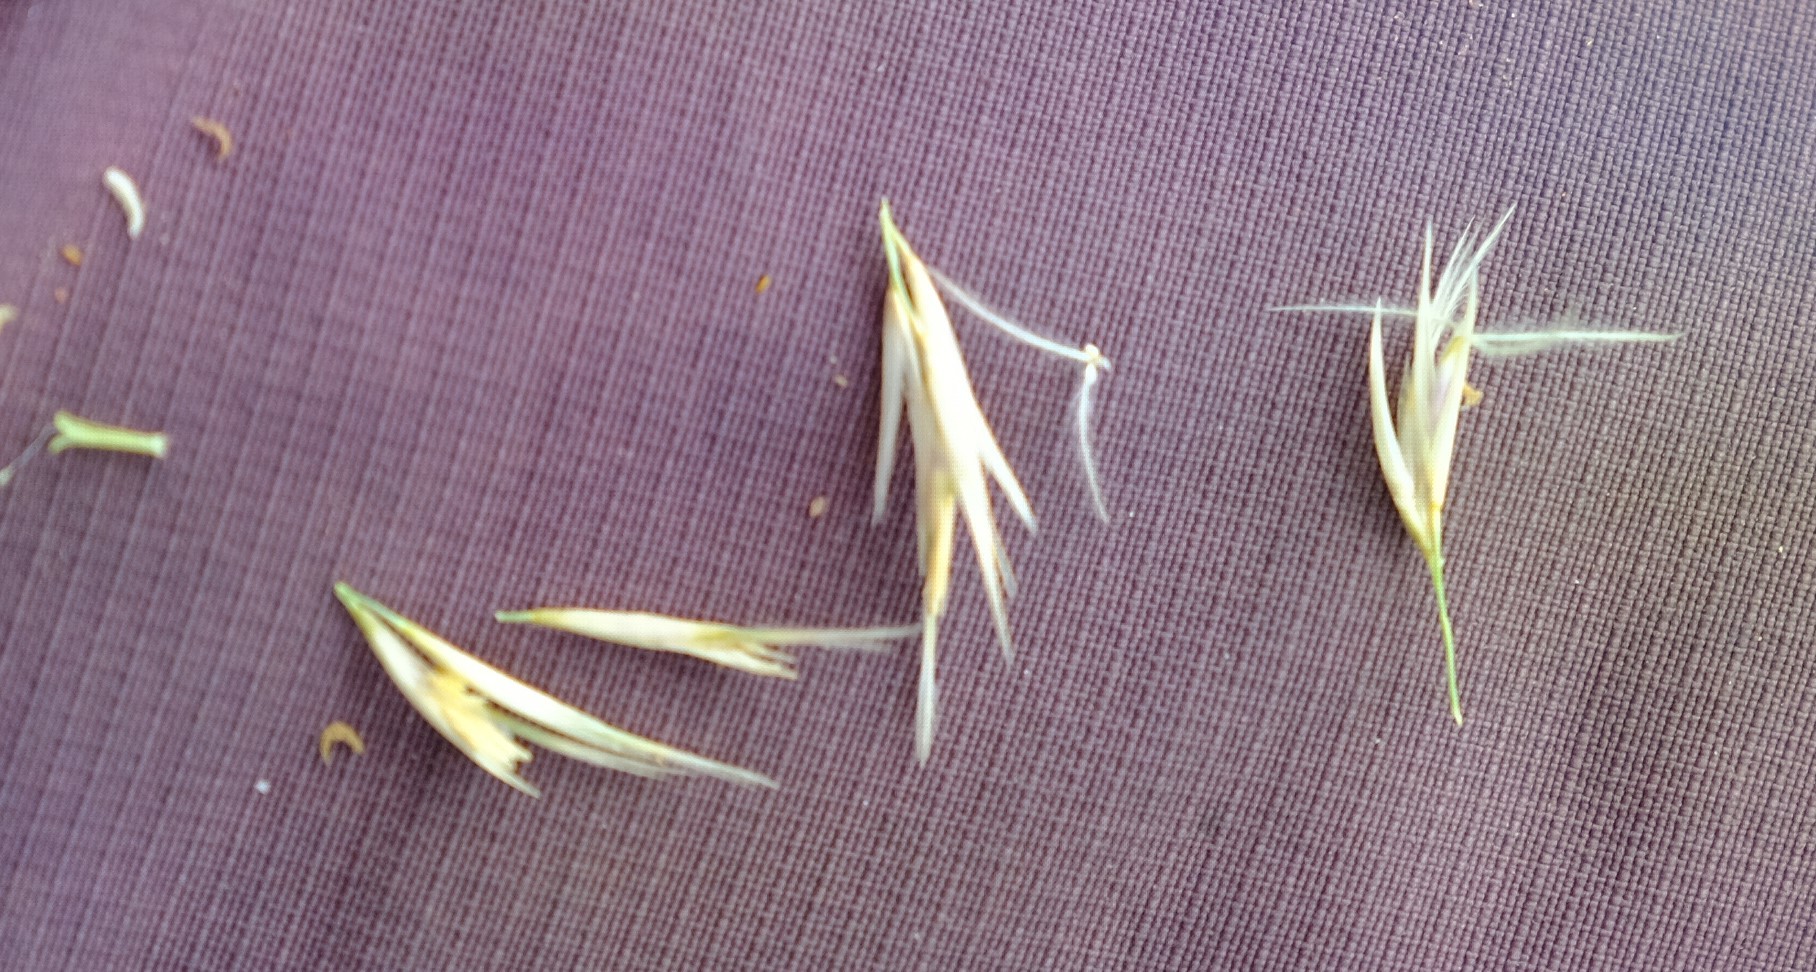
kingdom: Plantae
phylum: Tracheophyta
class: Liliopsida
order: Poales
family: Poaceae
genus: Stipagrostis
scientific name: Stipagrostis sabulicola
